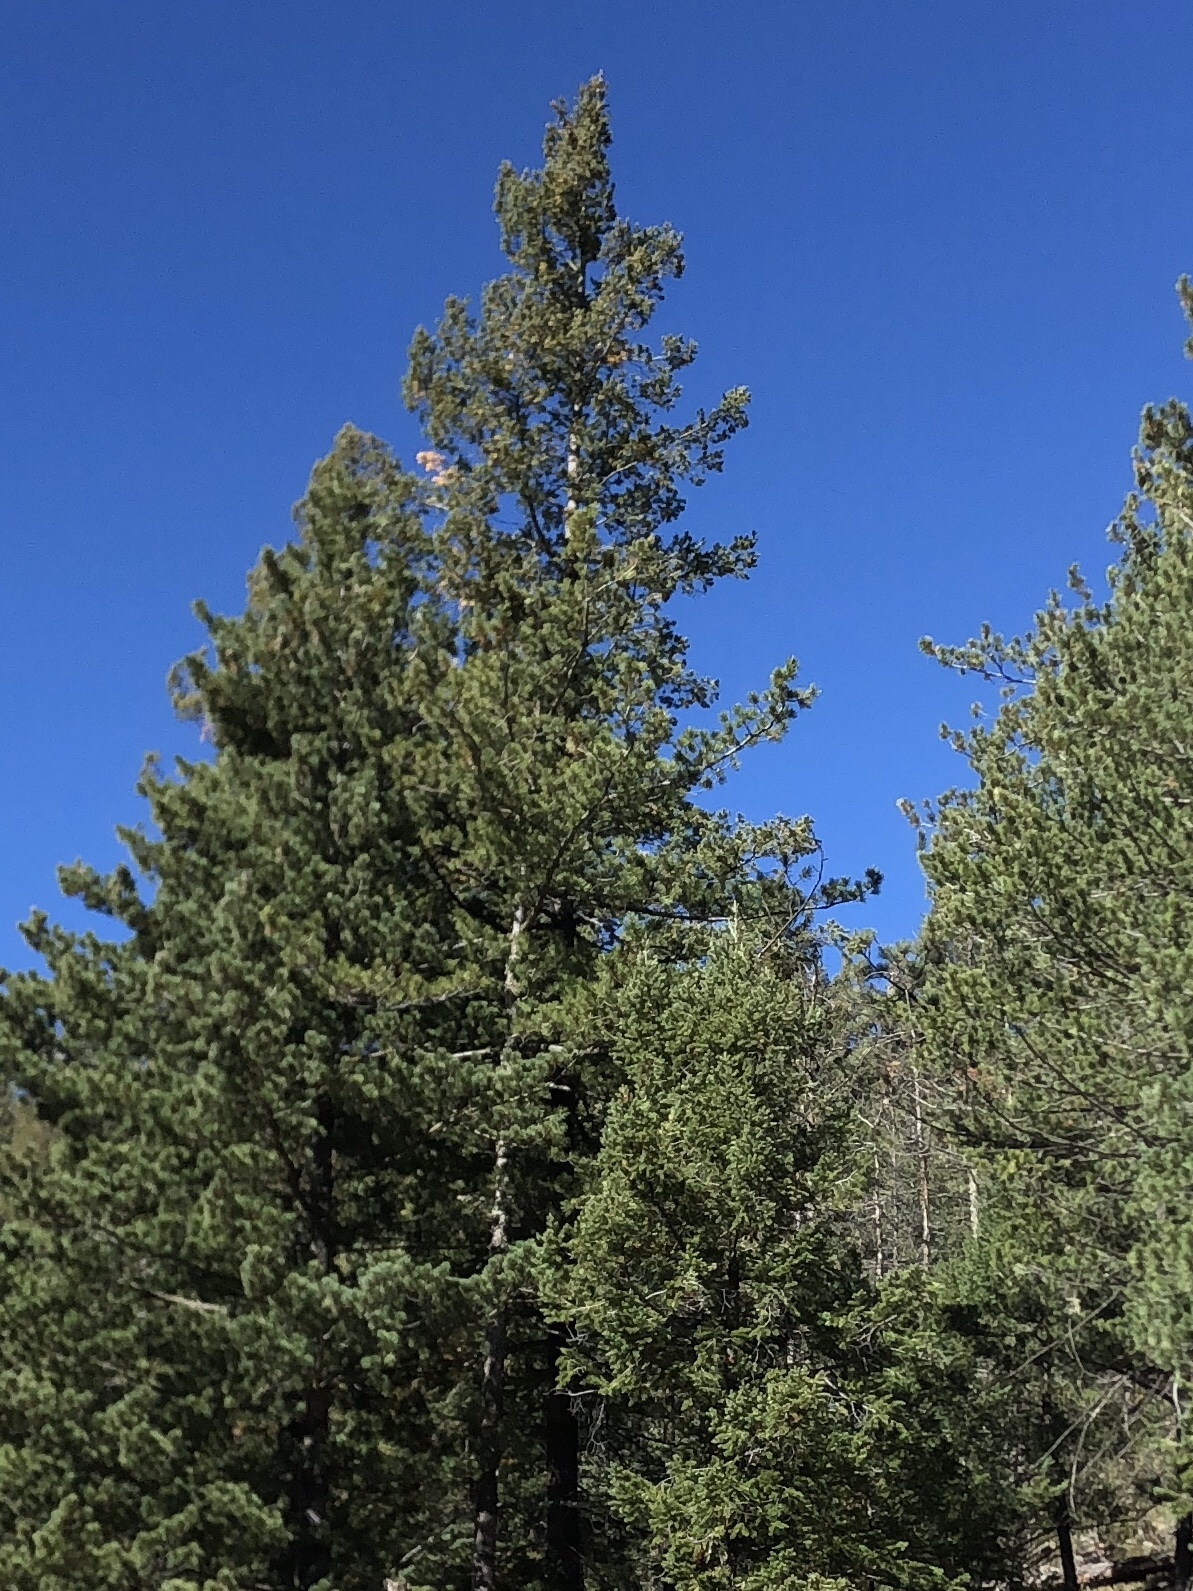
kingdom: Plantae
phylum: Tracheophyta
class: Pinopsida
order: Pinales
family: Pinaceae
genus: Pinus
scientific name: Pinus strobiformis
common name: Southwestern white pine
